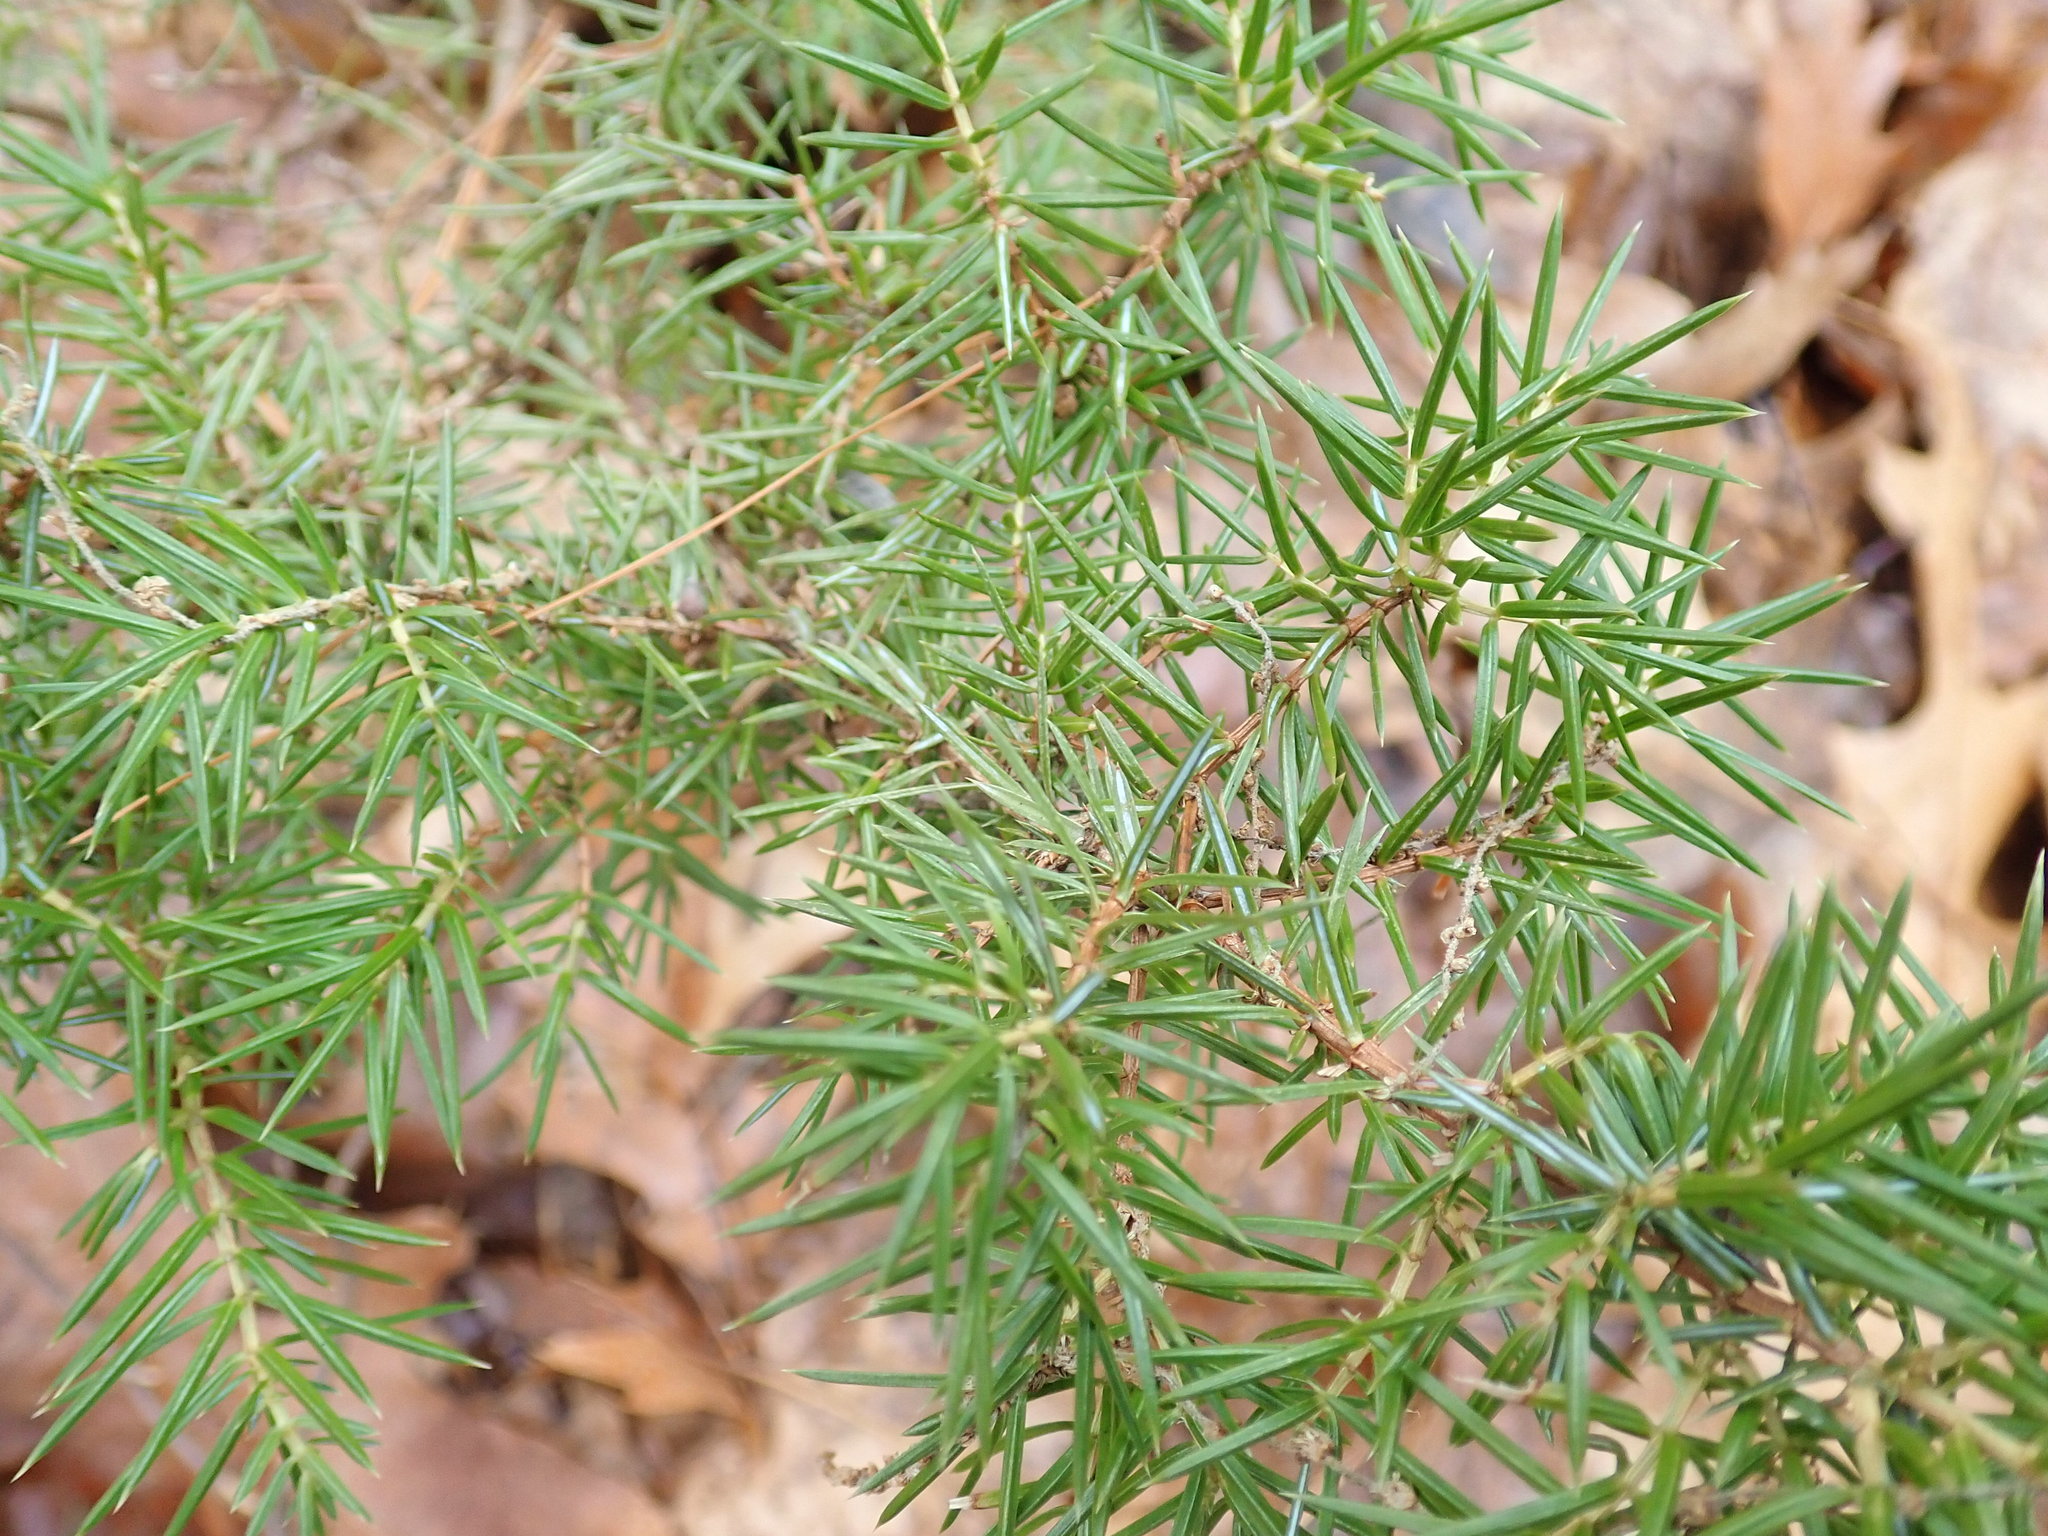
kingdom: Plantae
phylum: Tracheophyta
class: Pinopsida
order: Pinales
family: Cupressaceae
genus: Juniperus
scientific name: Juniperus communis
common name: Common juniper
